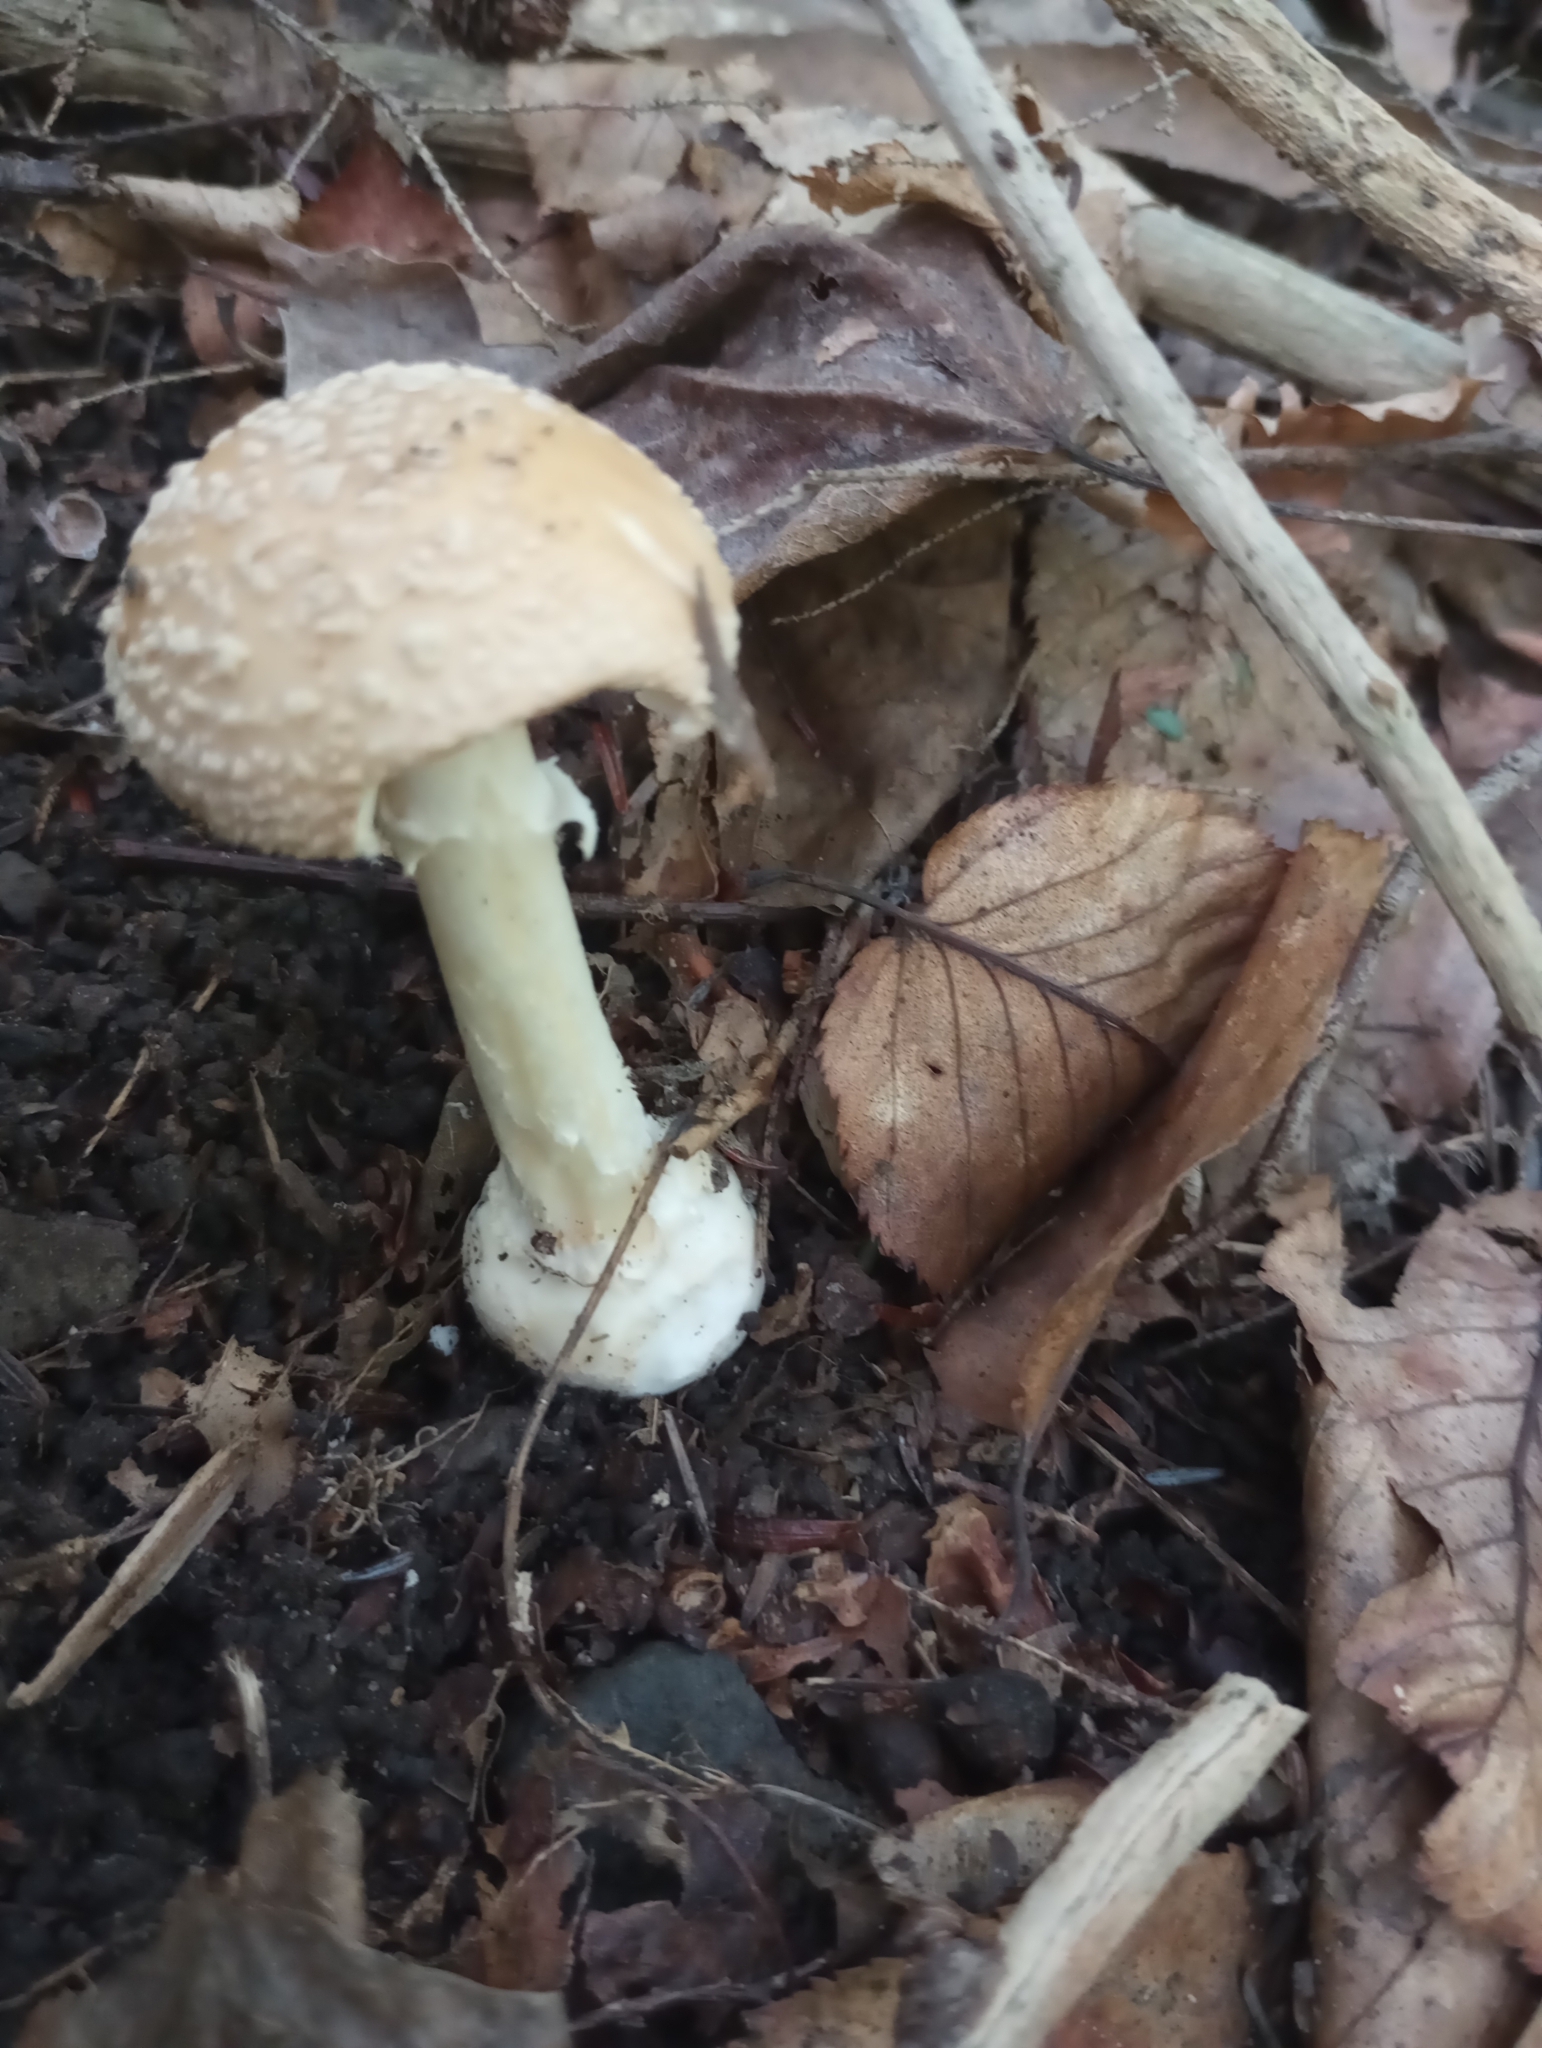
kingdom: Fungi
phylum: Basidiomycota
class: Agaricomycetes
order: Agaricales
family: Amanitaceae
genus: Amanita
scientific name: Amanita crenulata
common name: Poison champagne amanita
